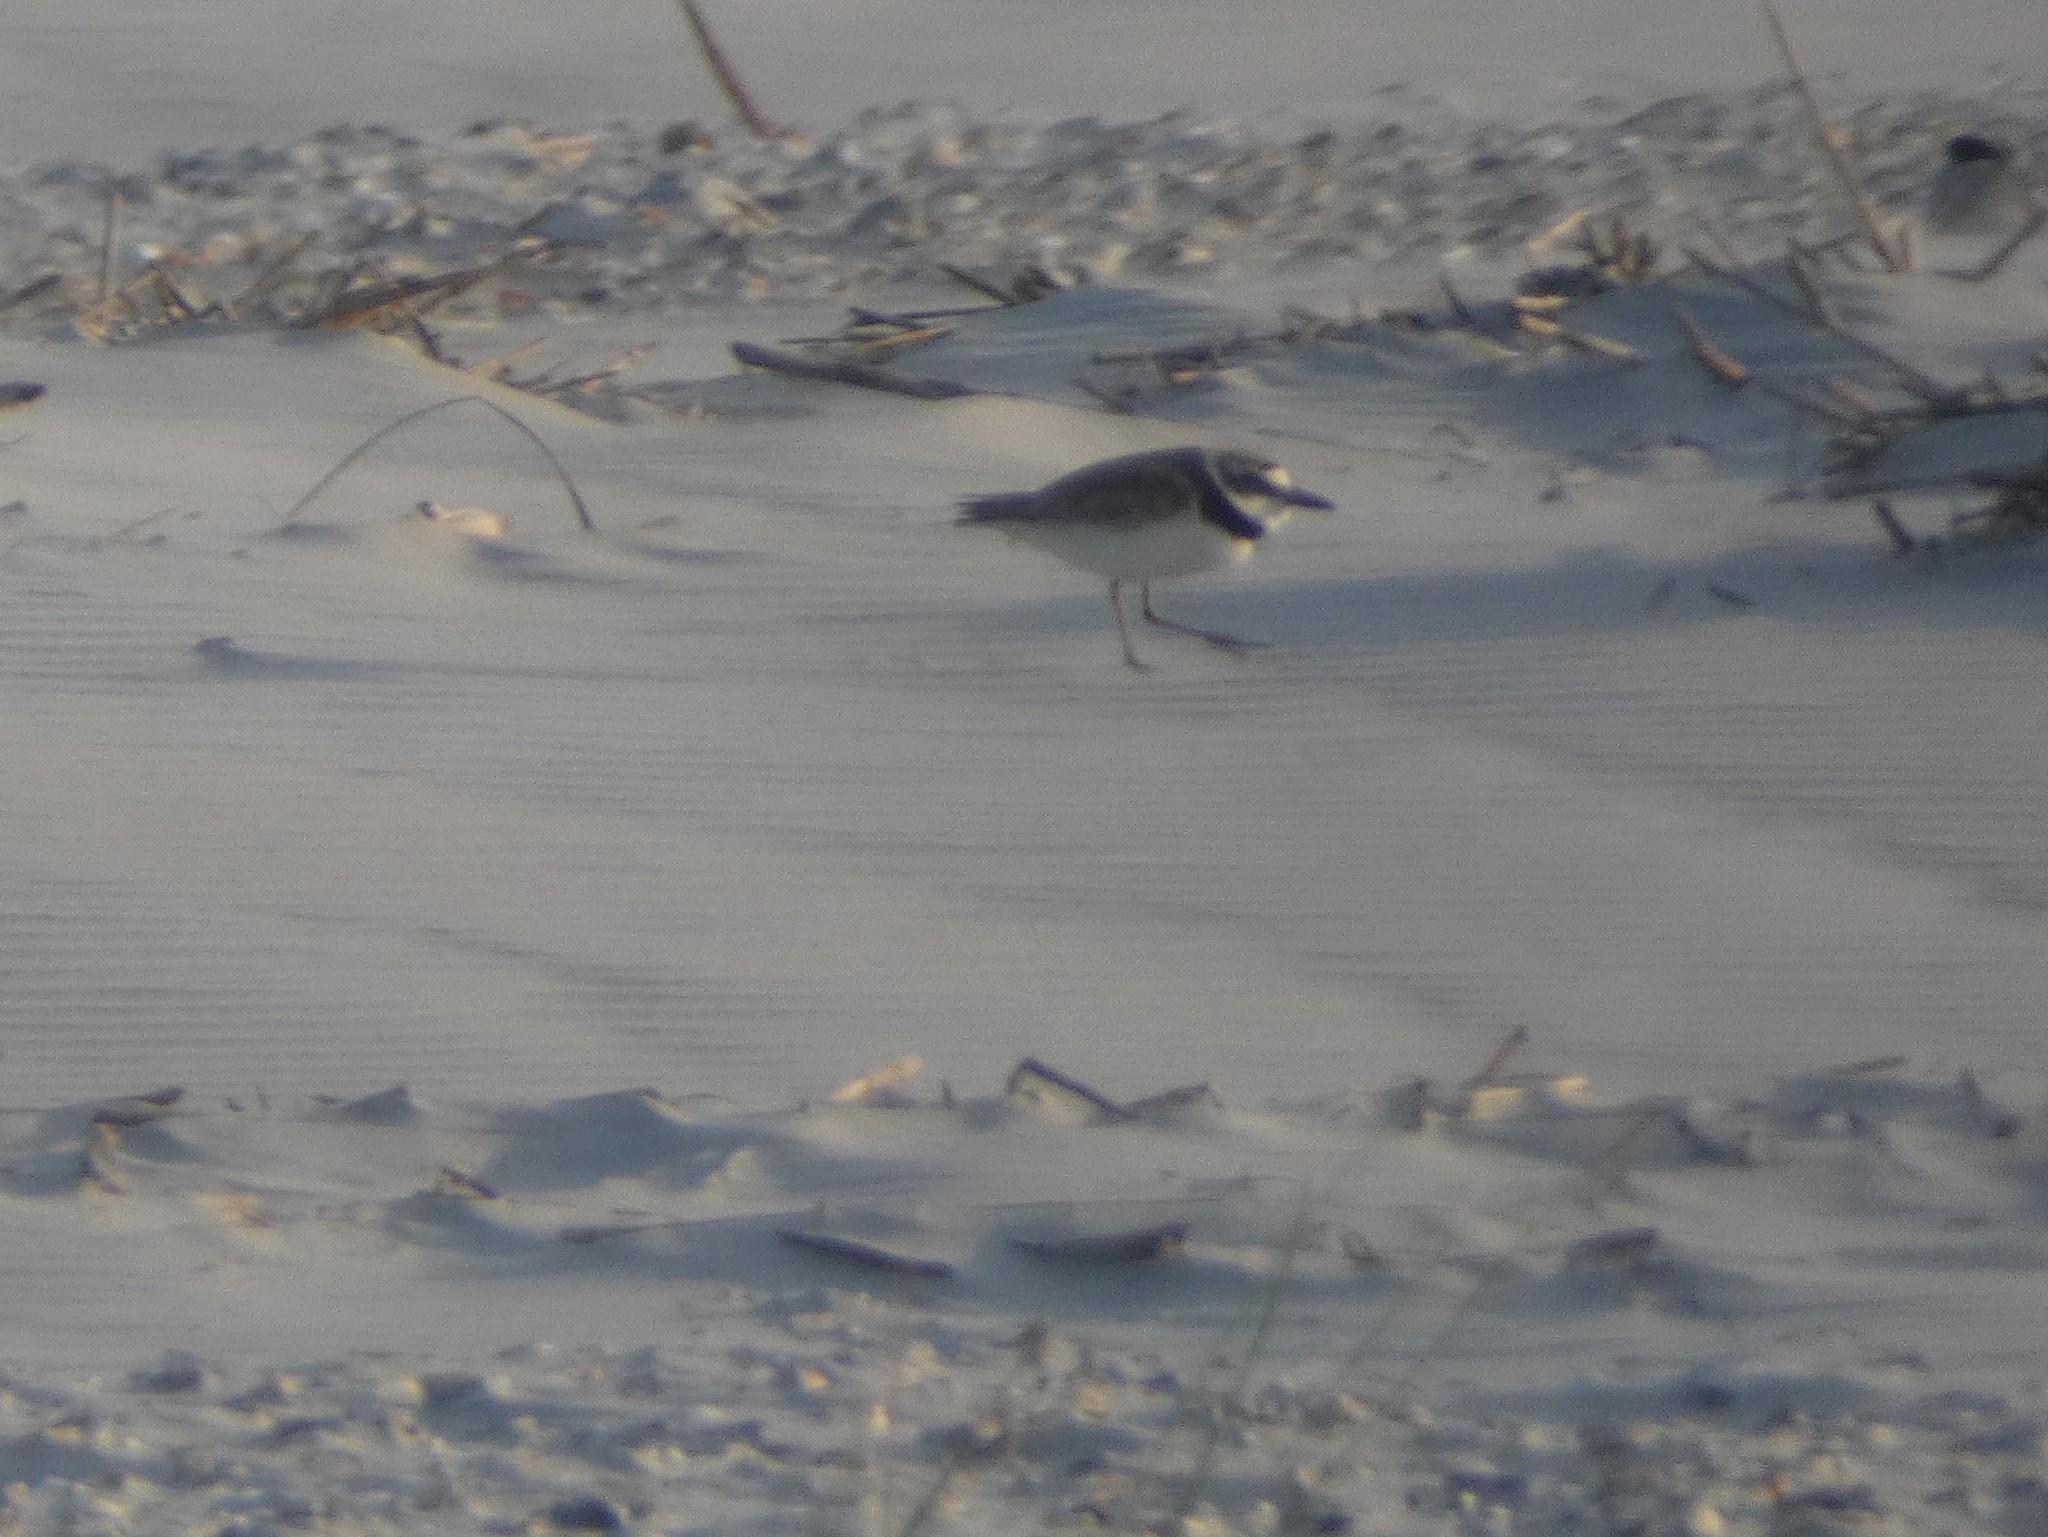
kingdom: Animalia
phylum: Chordata
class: Aves
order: Charadriiformes
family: Charadriidae
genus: Anarhynchus
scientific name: Anarhynchus
